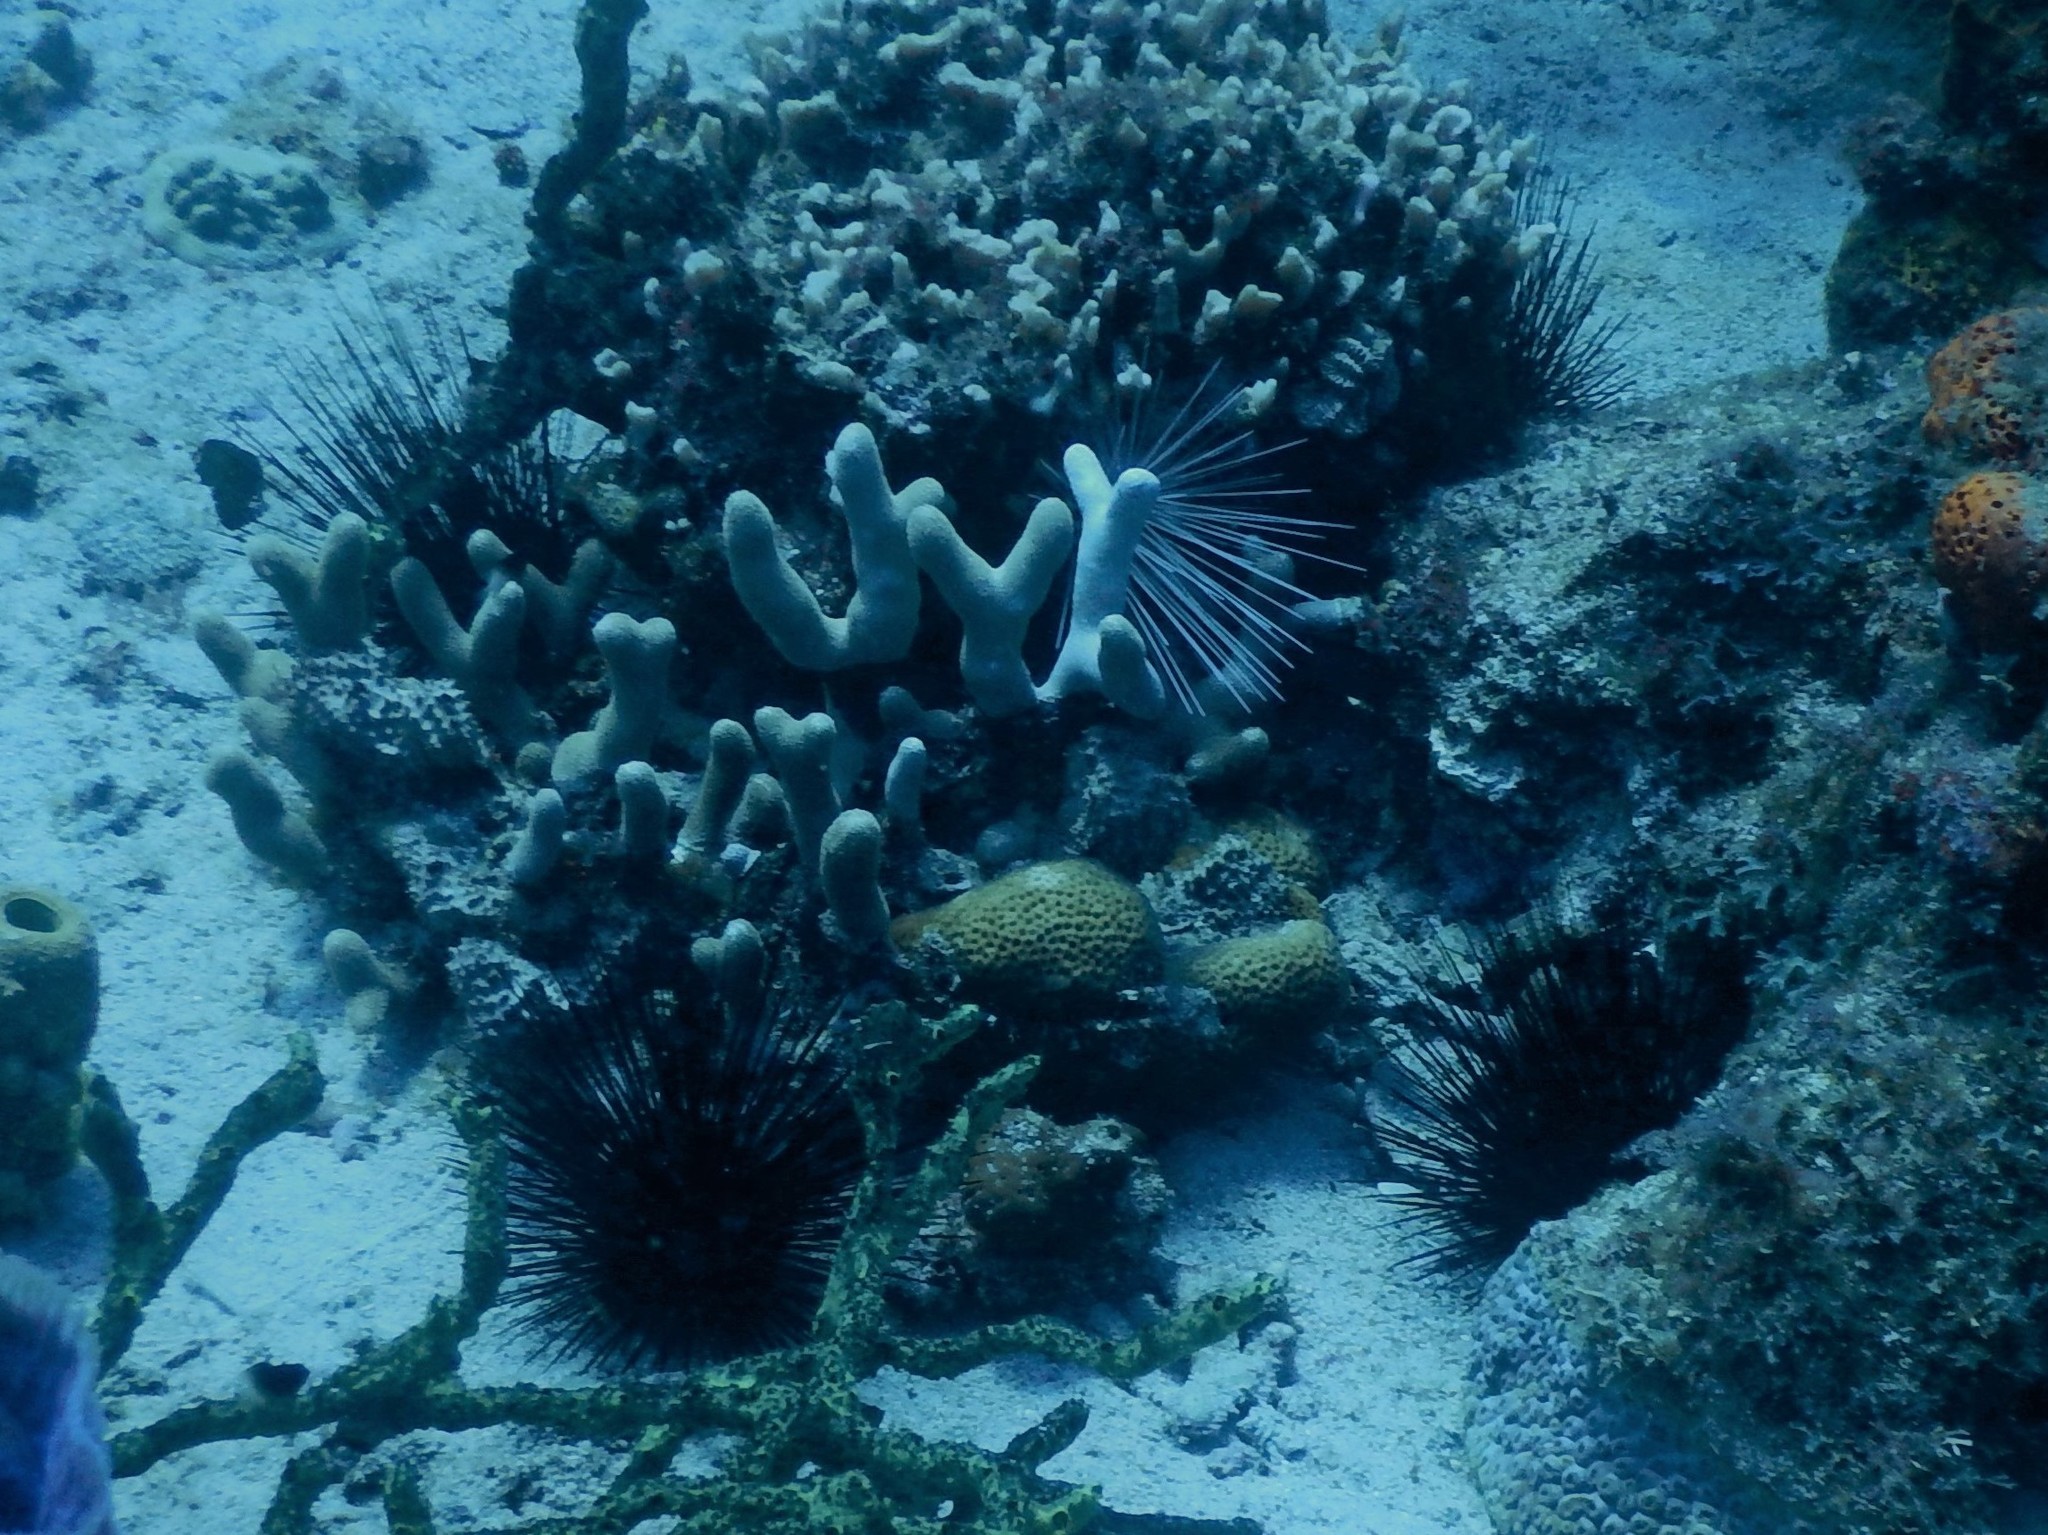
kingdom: Animalia
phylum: Echinodermata
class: Echinoidea
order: Diadematoida
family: Diadematidae
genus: Diadema
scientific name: Diadema antillarum
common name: Spiny urchin
